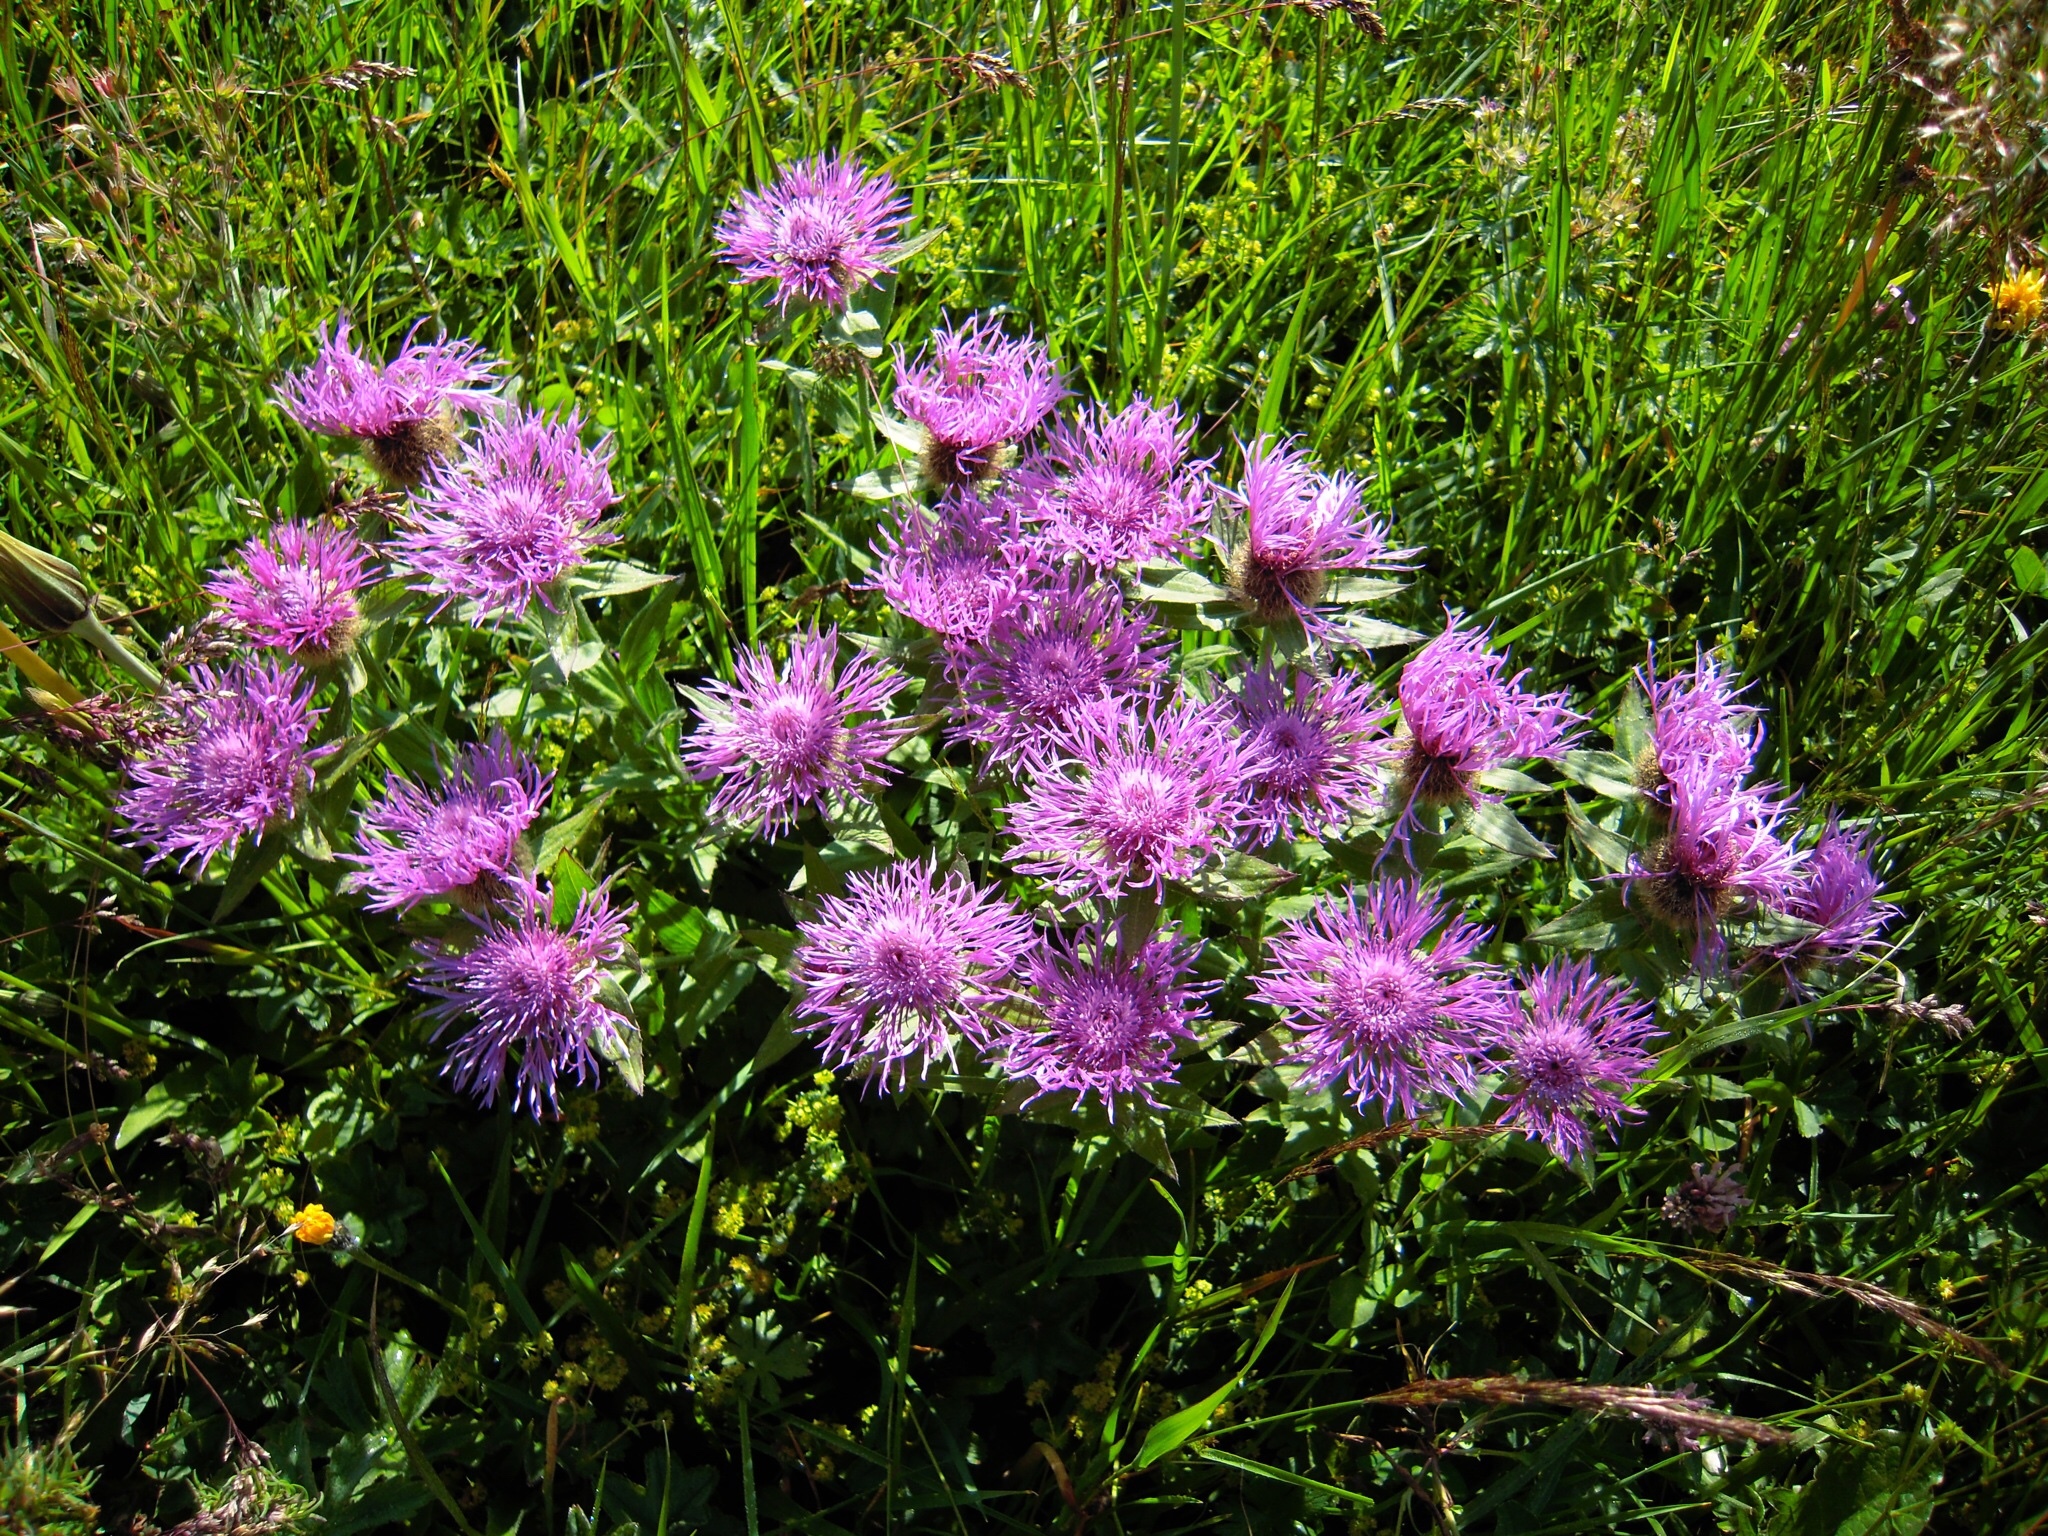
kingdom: Plantae
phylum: Tracheophyta
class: Magnoliopsida
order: Asterales
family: Asteraceae
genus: Centaurea
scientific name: Centaurea nervosa
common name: Singleflower knapweed
